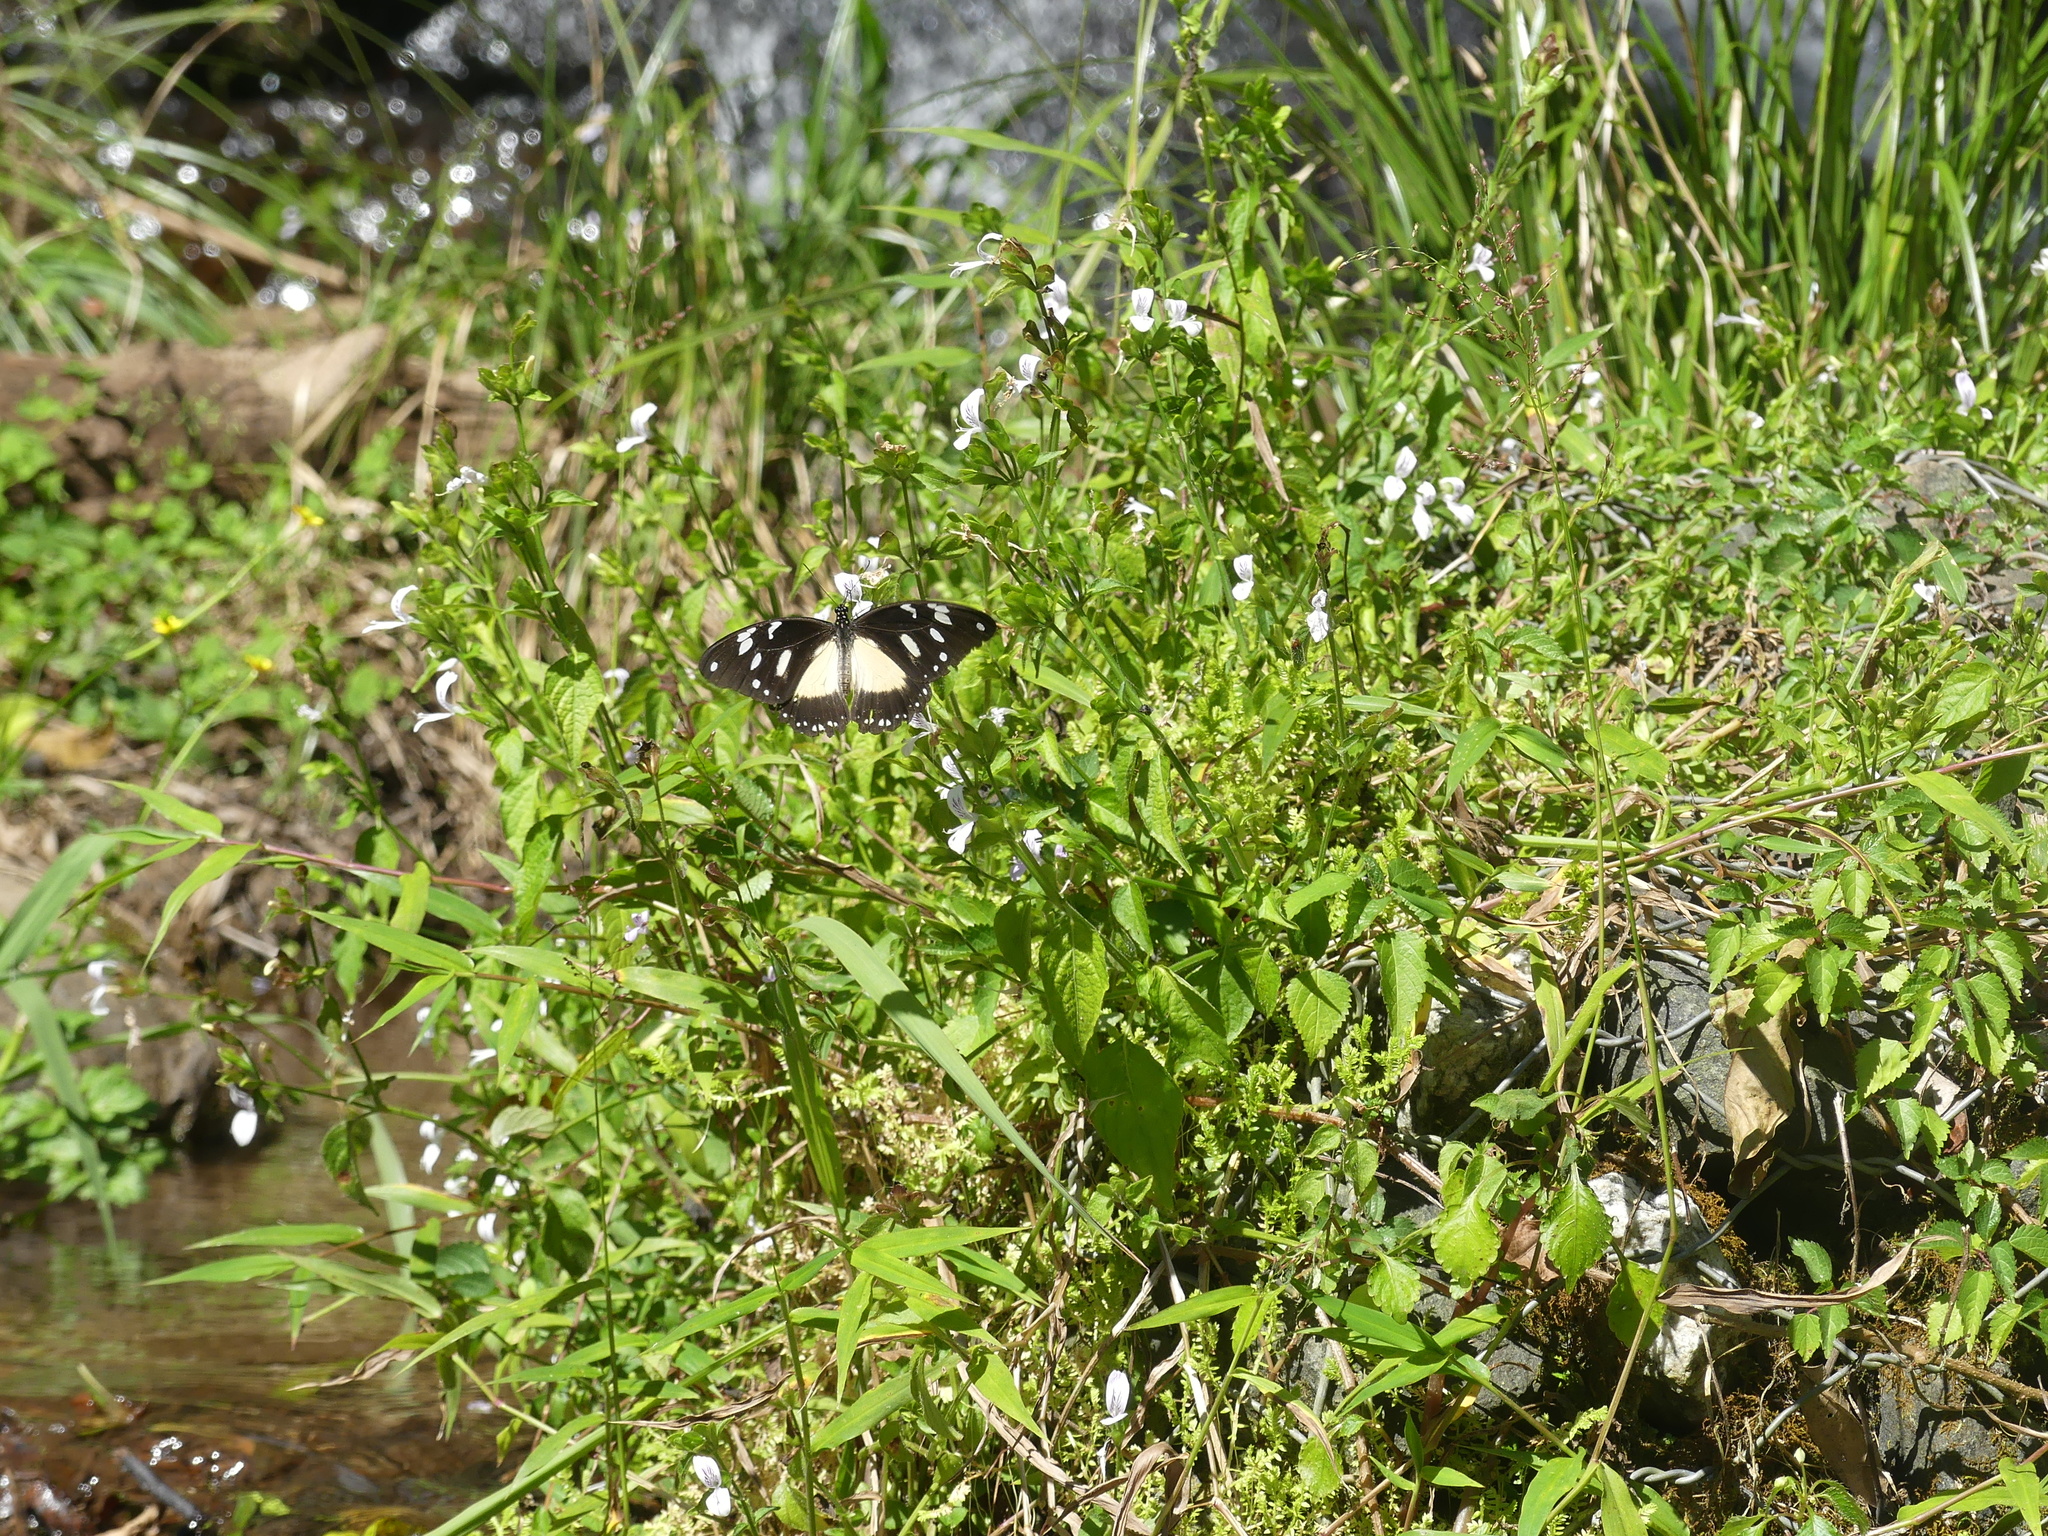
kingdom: Animalia
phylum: Arthropoda
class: Insecta
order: Lepidoptera
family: Papilionidae
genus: Papilio
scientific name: Papilio dardanus
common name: Flying handkerchief
